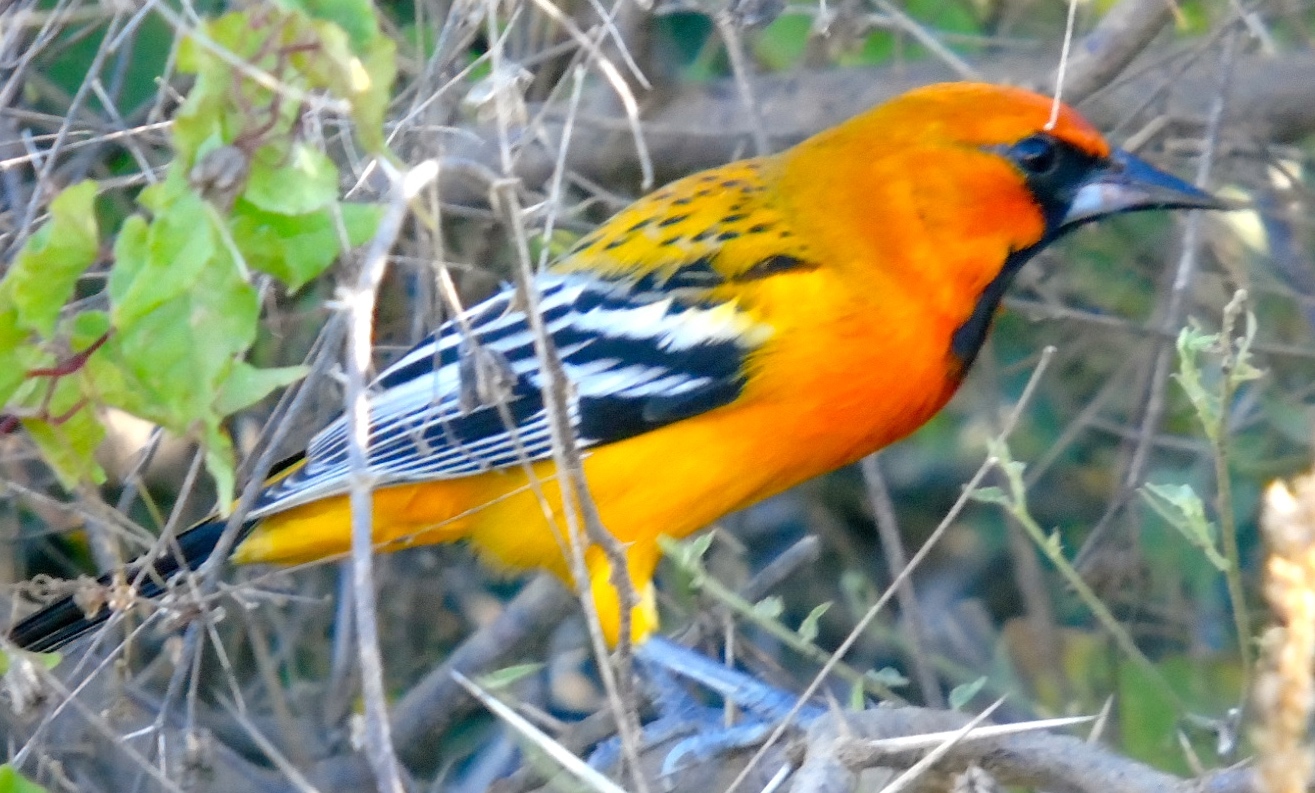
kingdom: Animalia
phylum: Chordata
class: Aves
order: Passeriformes
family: Icteridae
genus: Icterus
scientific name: Icterus pustulatus
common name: Streak-backed oriole
